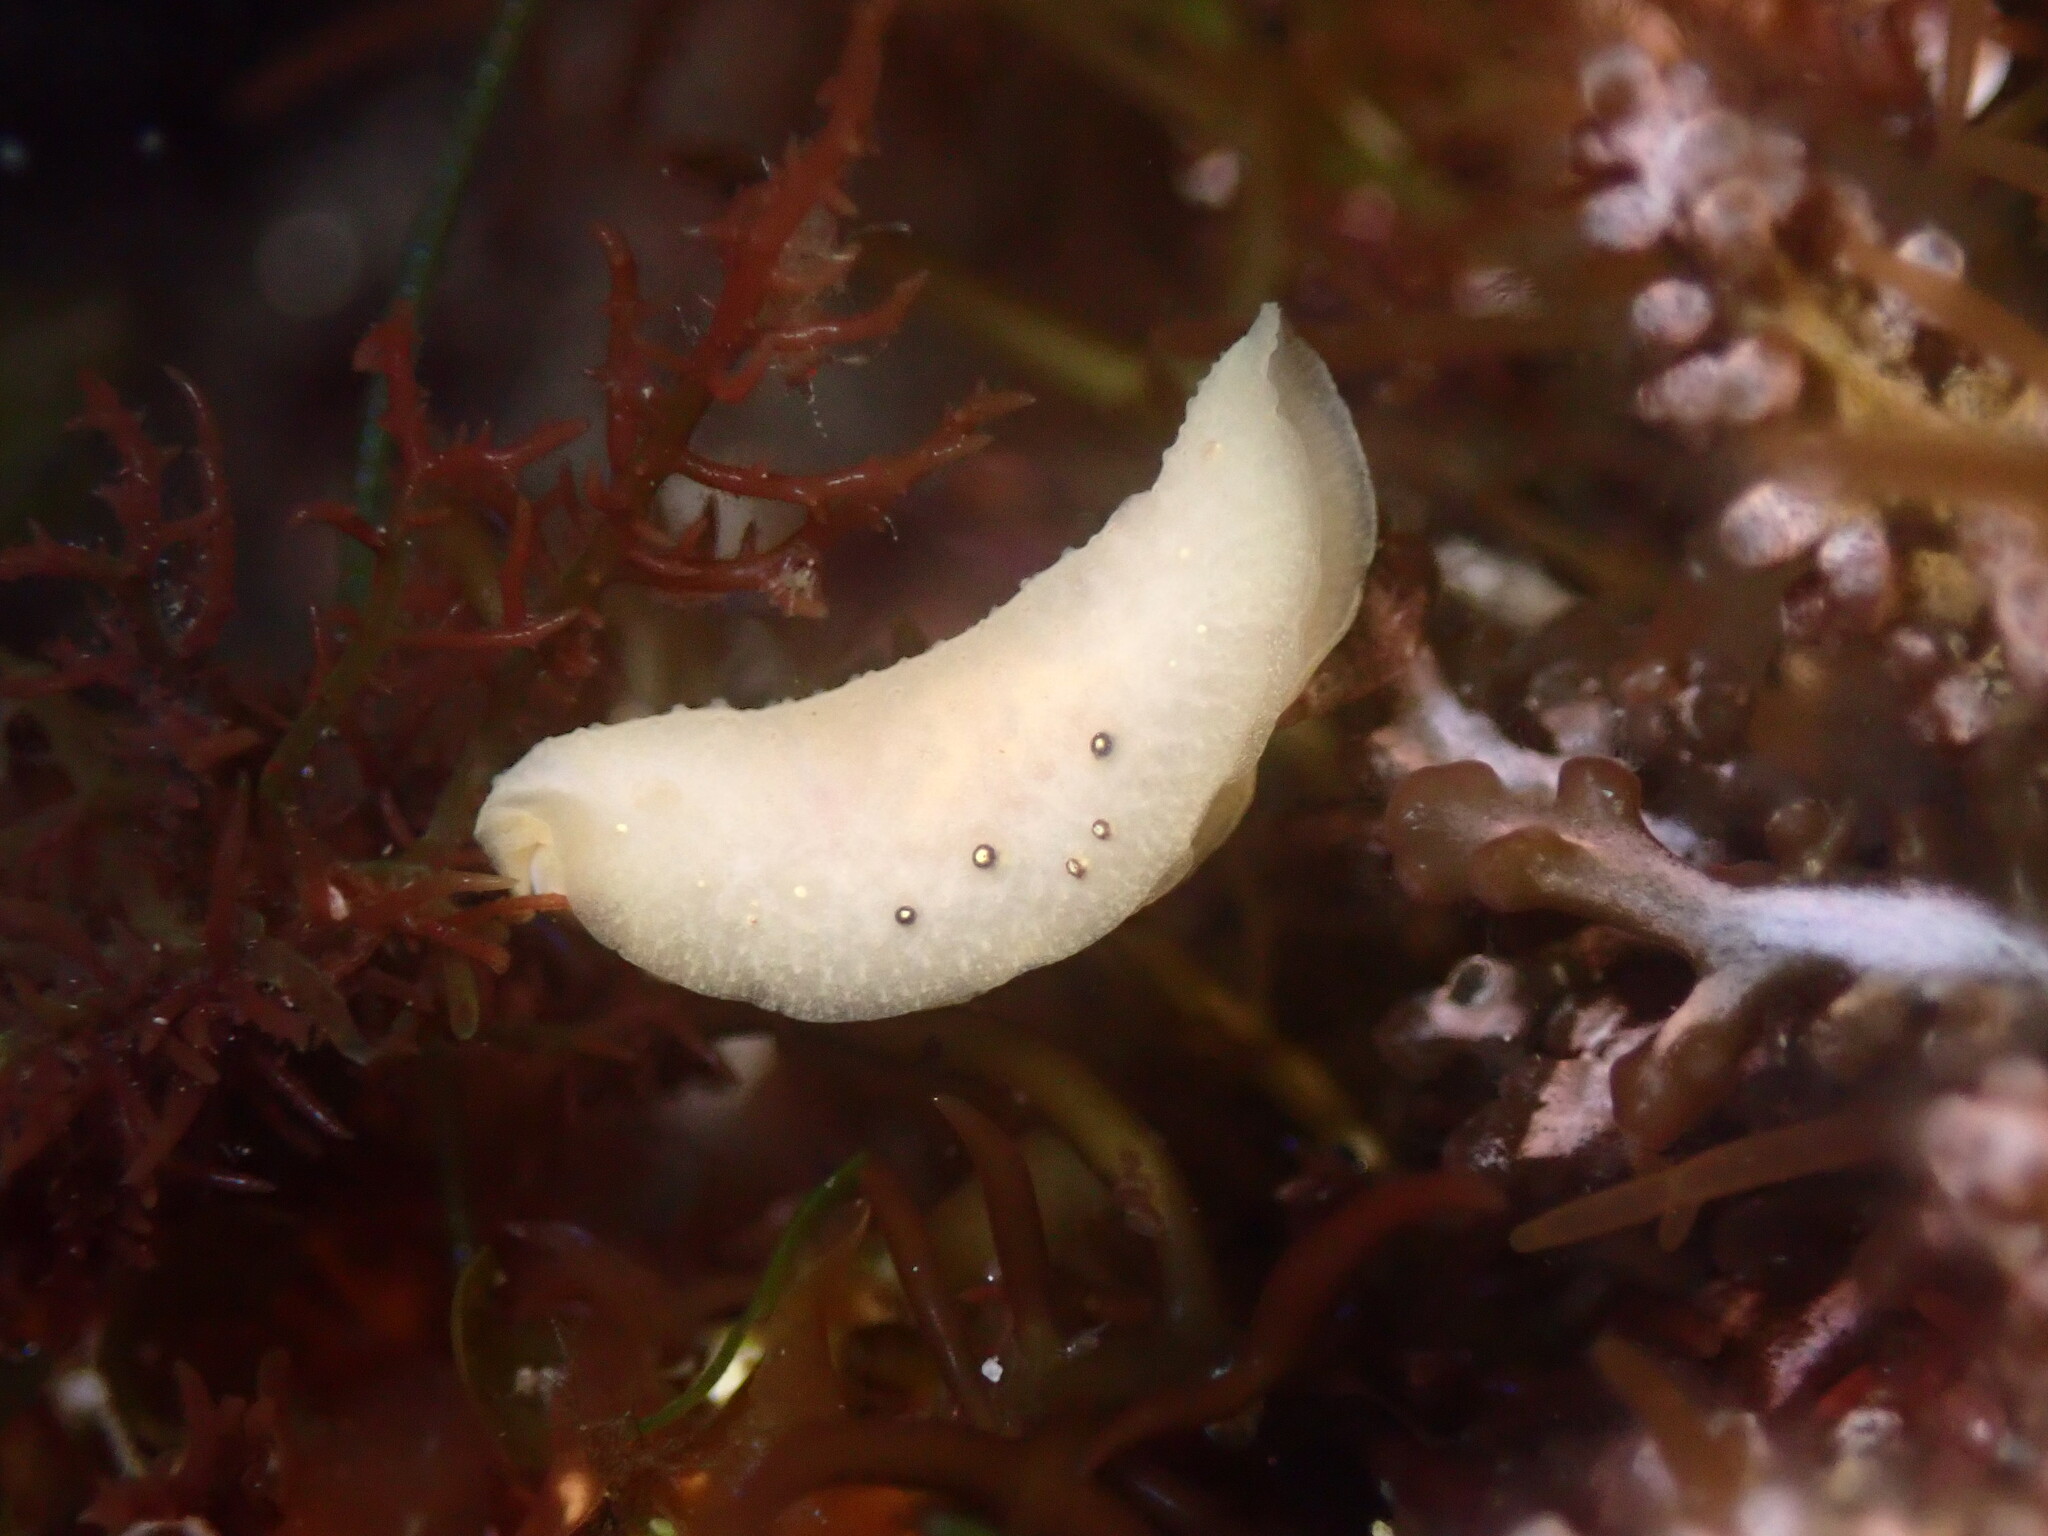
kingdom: Animalia
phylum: Mollusca
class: Gastropoda
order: Nudibranchia
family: Cadlinidae
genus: Cadlina
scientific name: Cadlina sparsa
